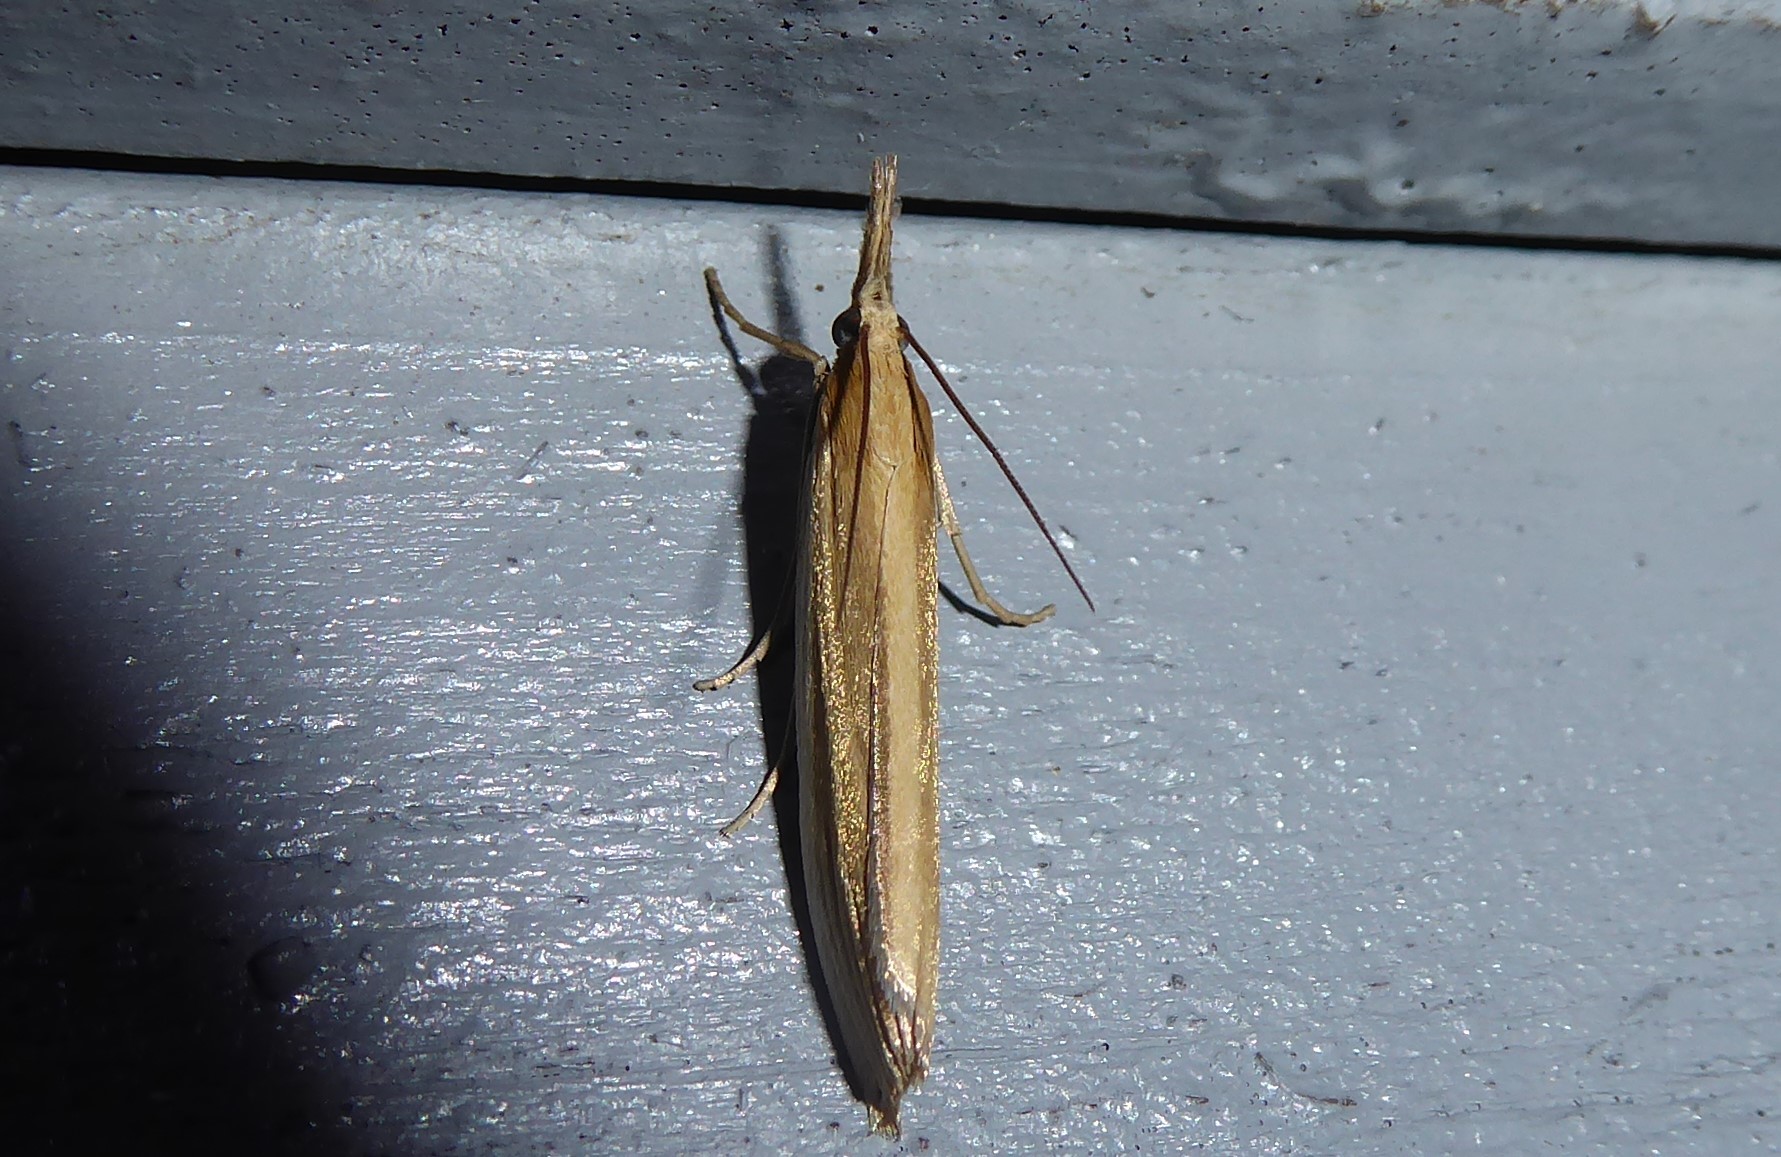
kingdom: Animalia
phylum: Arthropoda
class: Insecta
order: Lepidoptera
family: Crambidae
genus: Orocrambus
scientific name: Orocrambus angustipennis
